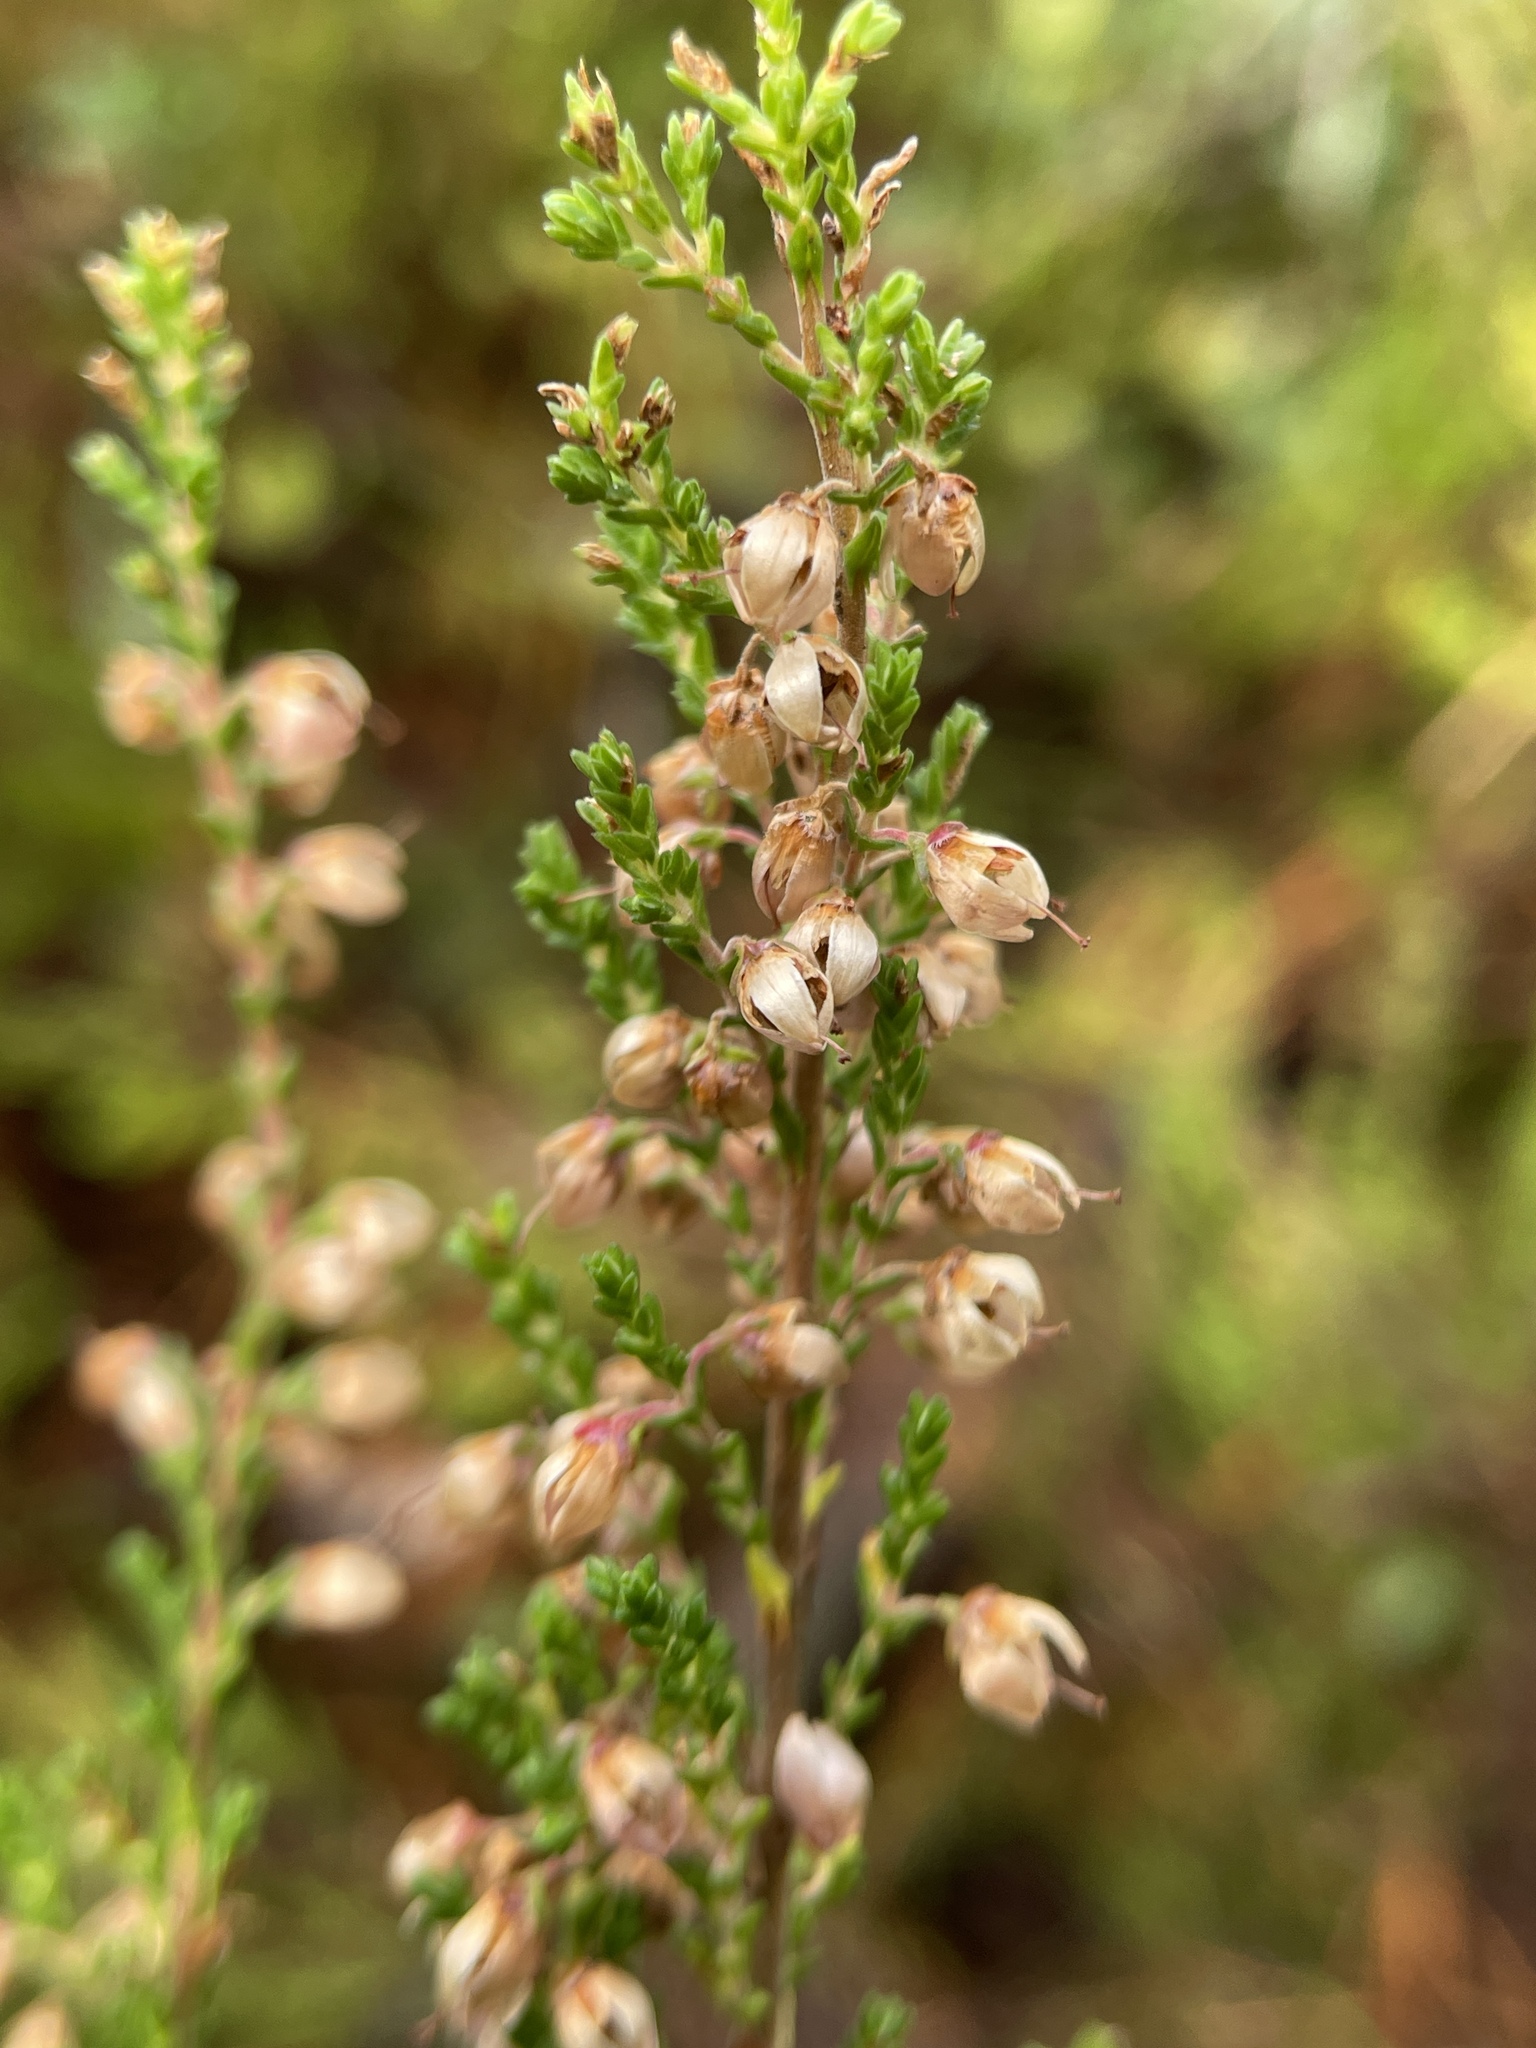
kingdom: Plantae
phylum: Tracheophyta
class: Magnoliopsida
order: Ericales
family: Ericaceae
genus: Calluna
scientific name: Calluna vulgaris
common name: Heather
